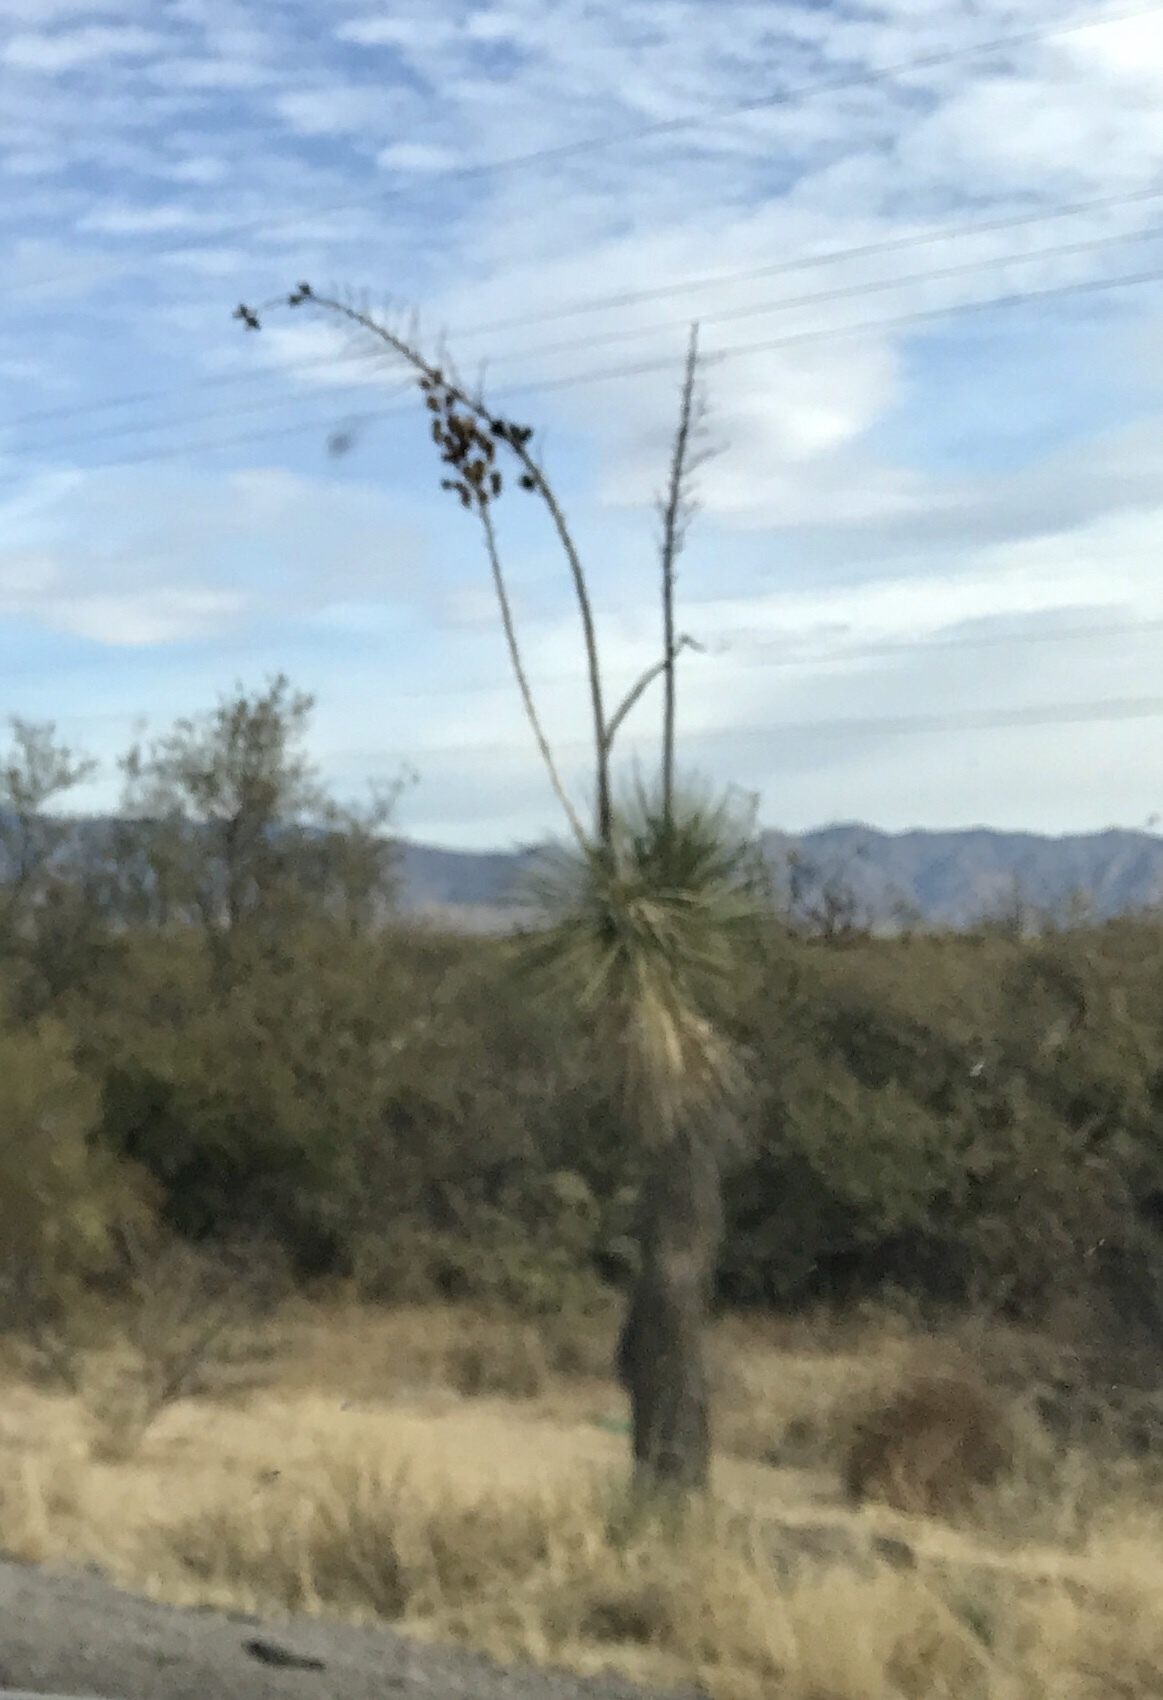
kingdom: Plantae
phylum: Tracheophyta
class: Liliopsida
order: Asparagales
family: Asparagaceae
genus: Yucca
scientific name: Yucca elata
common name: Palmella
